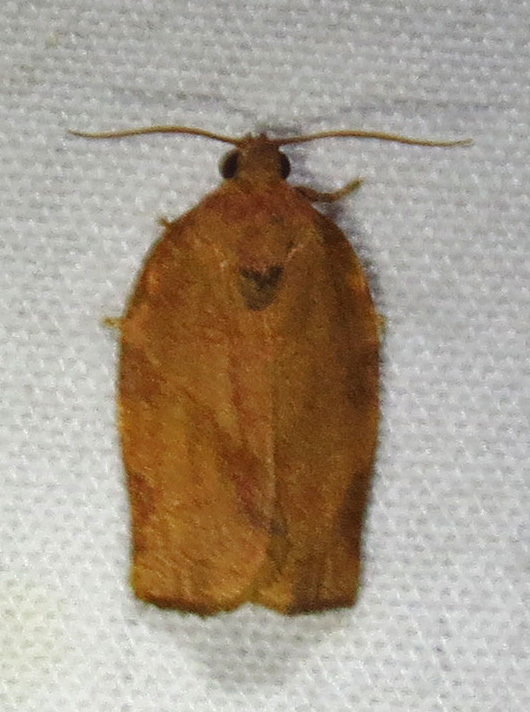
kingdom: Animalia
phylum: Arthropoda
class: Insecta
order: Lepidoptera
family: Tortricidae
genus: Choristoneura
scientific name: Choristoneura rosaceana
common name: Oblique-banded leafroller moth
